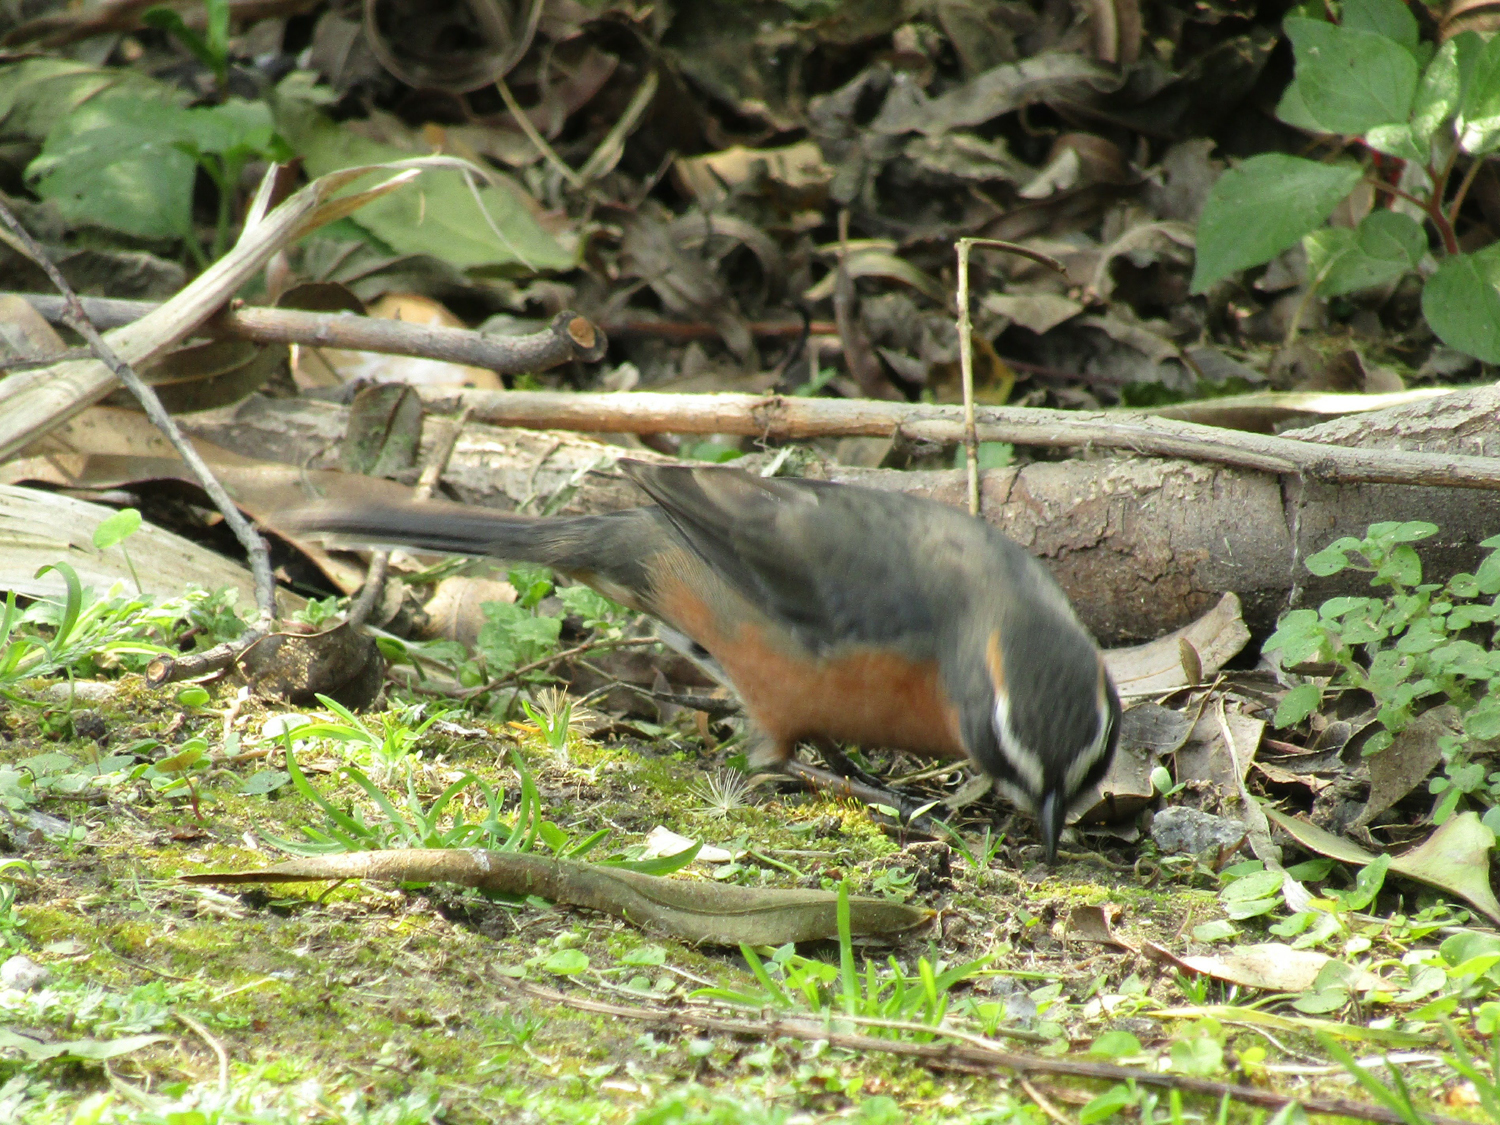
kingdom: Animalia
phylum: Chordata
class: Aves
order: Passeriformes
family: Thraupidae
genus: Poospiza
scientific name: Poospiza nigrorufa
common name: Black-and-rufous warbling finch
